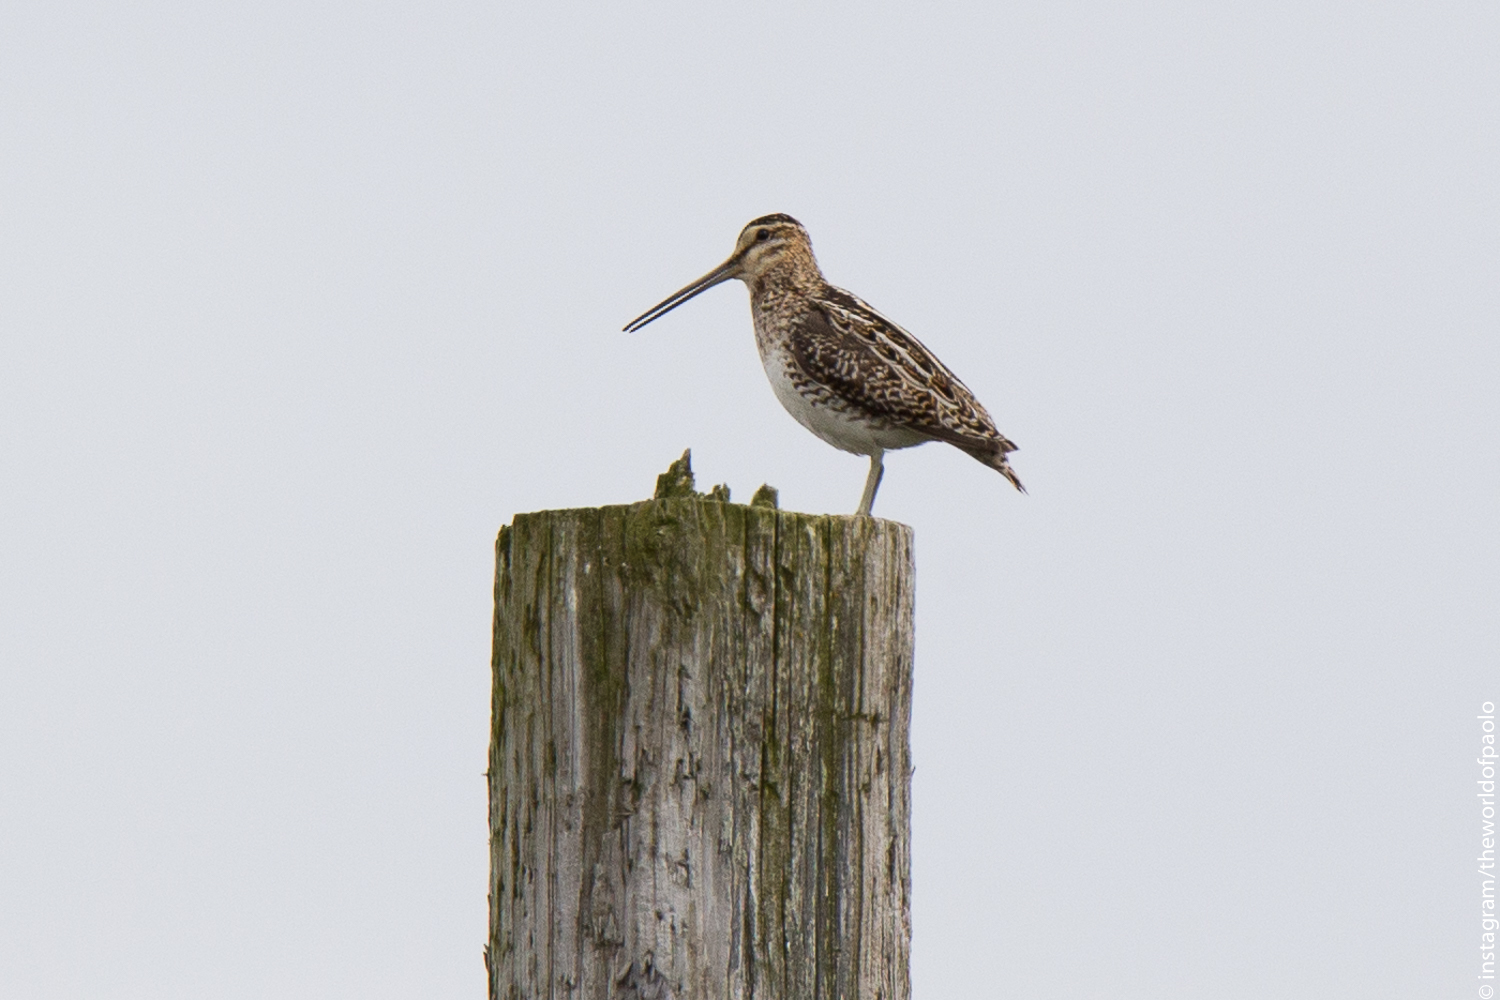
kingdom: Animalia
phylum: Chordata
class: Aves
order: Charadriiformes
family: Scolopacidae
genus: Gallinago
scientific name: Gallinago gallinago
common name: Common snipe
